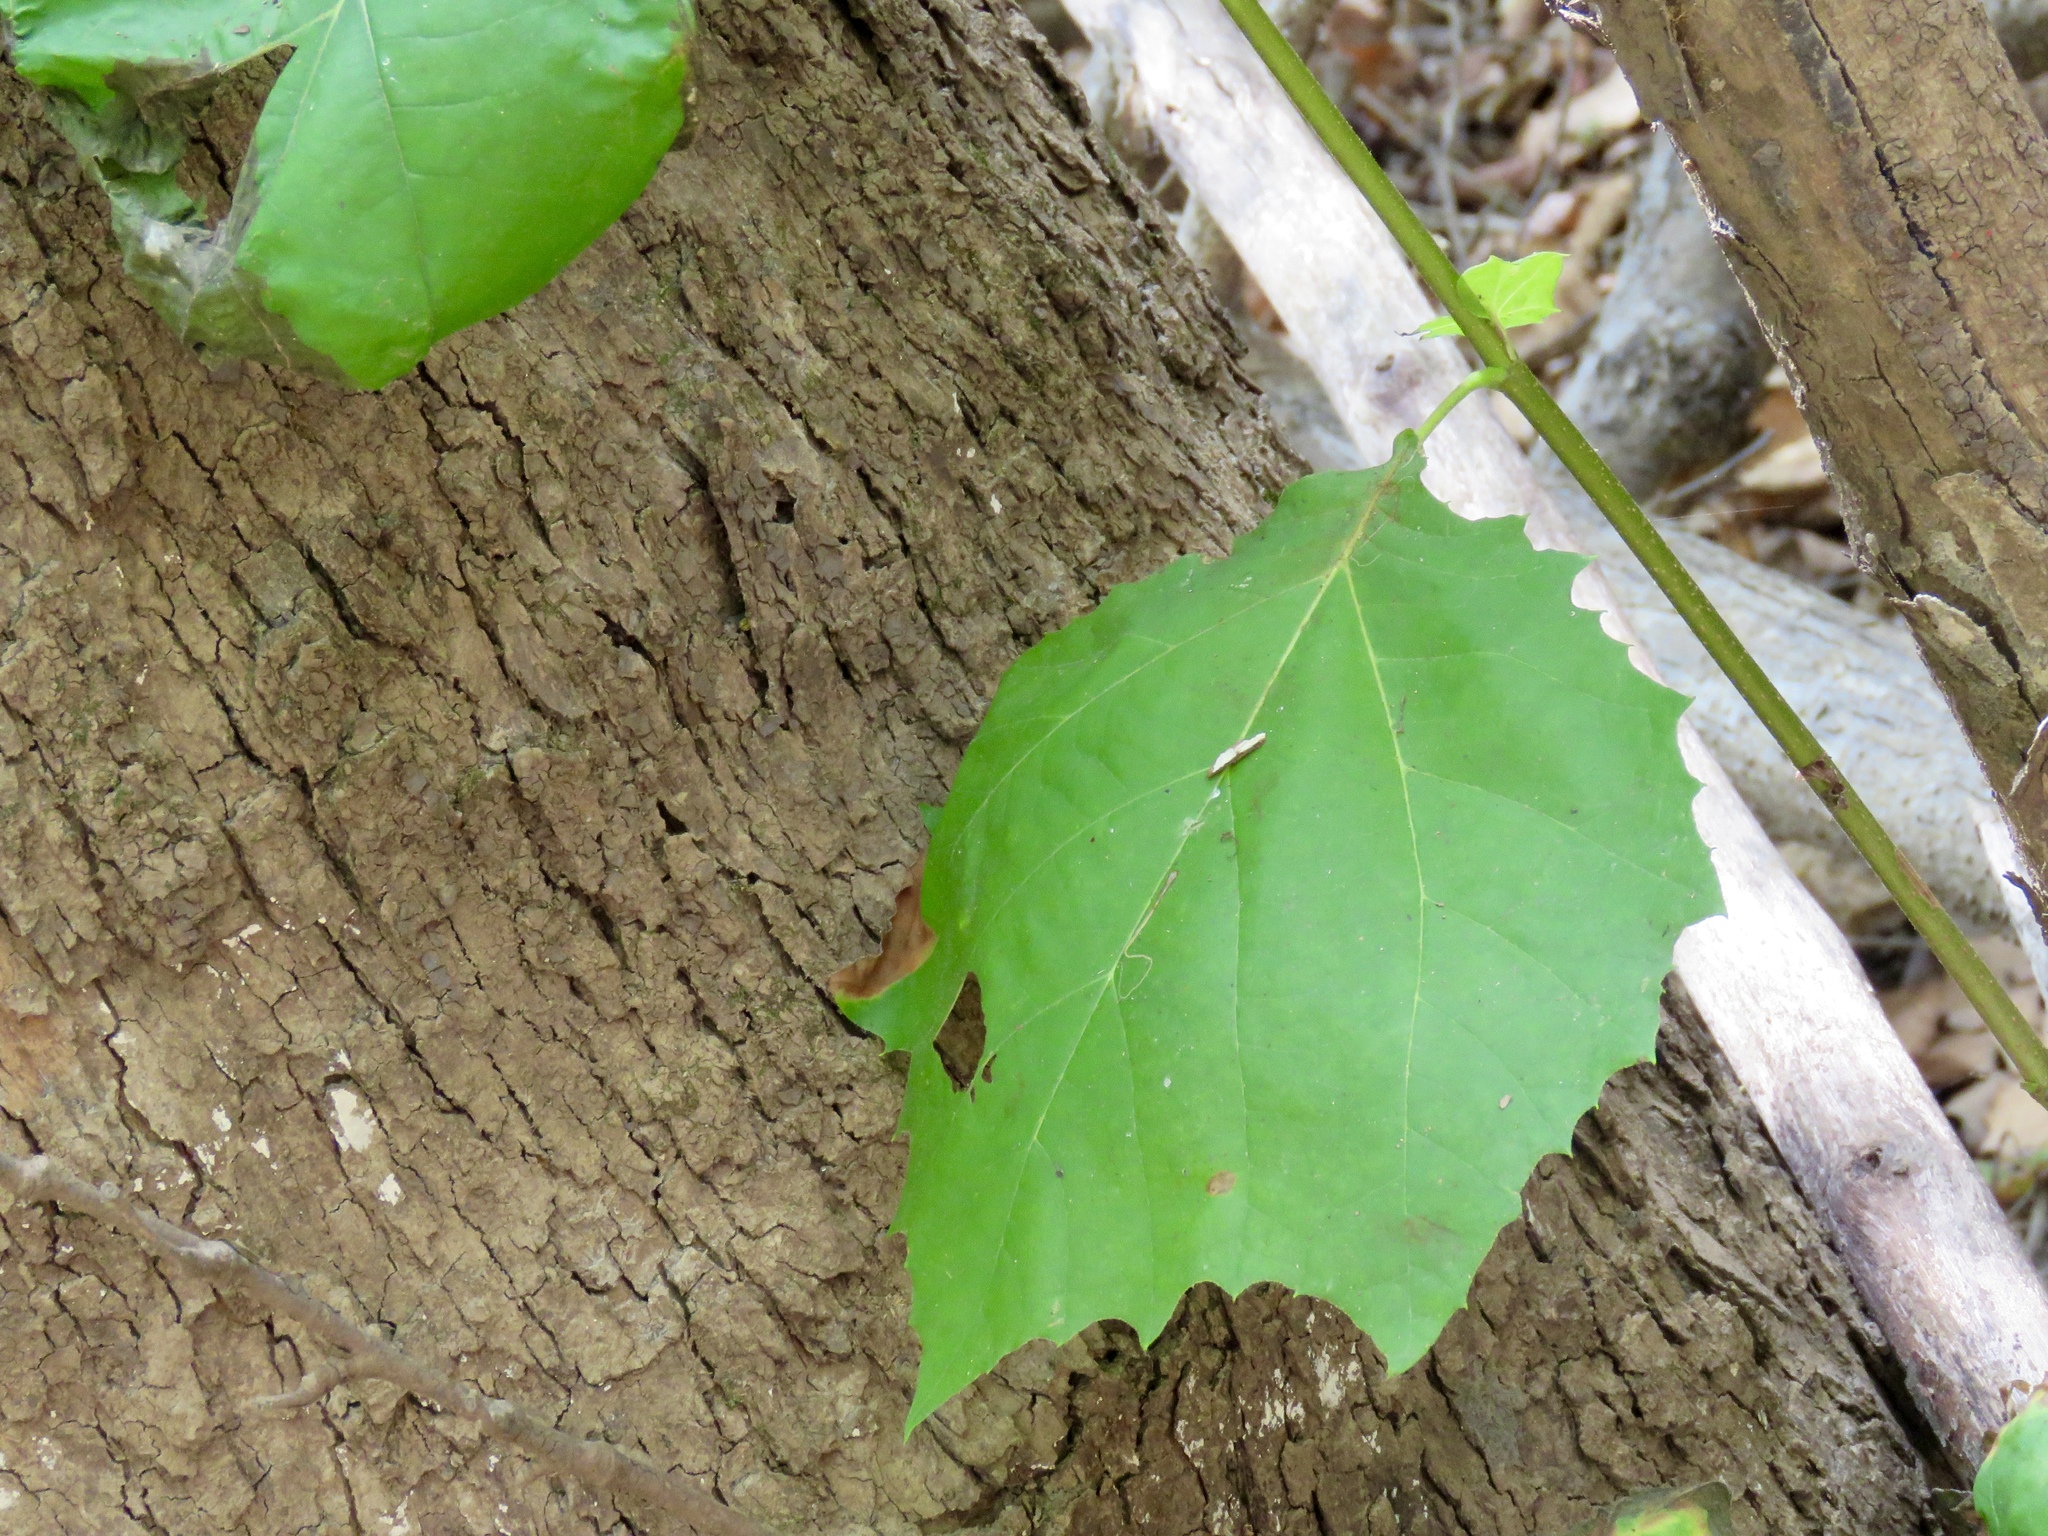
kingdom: Plantae
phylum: Tracheophyta
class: Magnoliopsida
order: Proteales
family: Platanaceae
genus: Platanus
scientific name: Platanus occidentalis
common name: American sycamore
